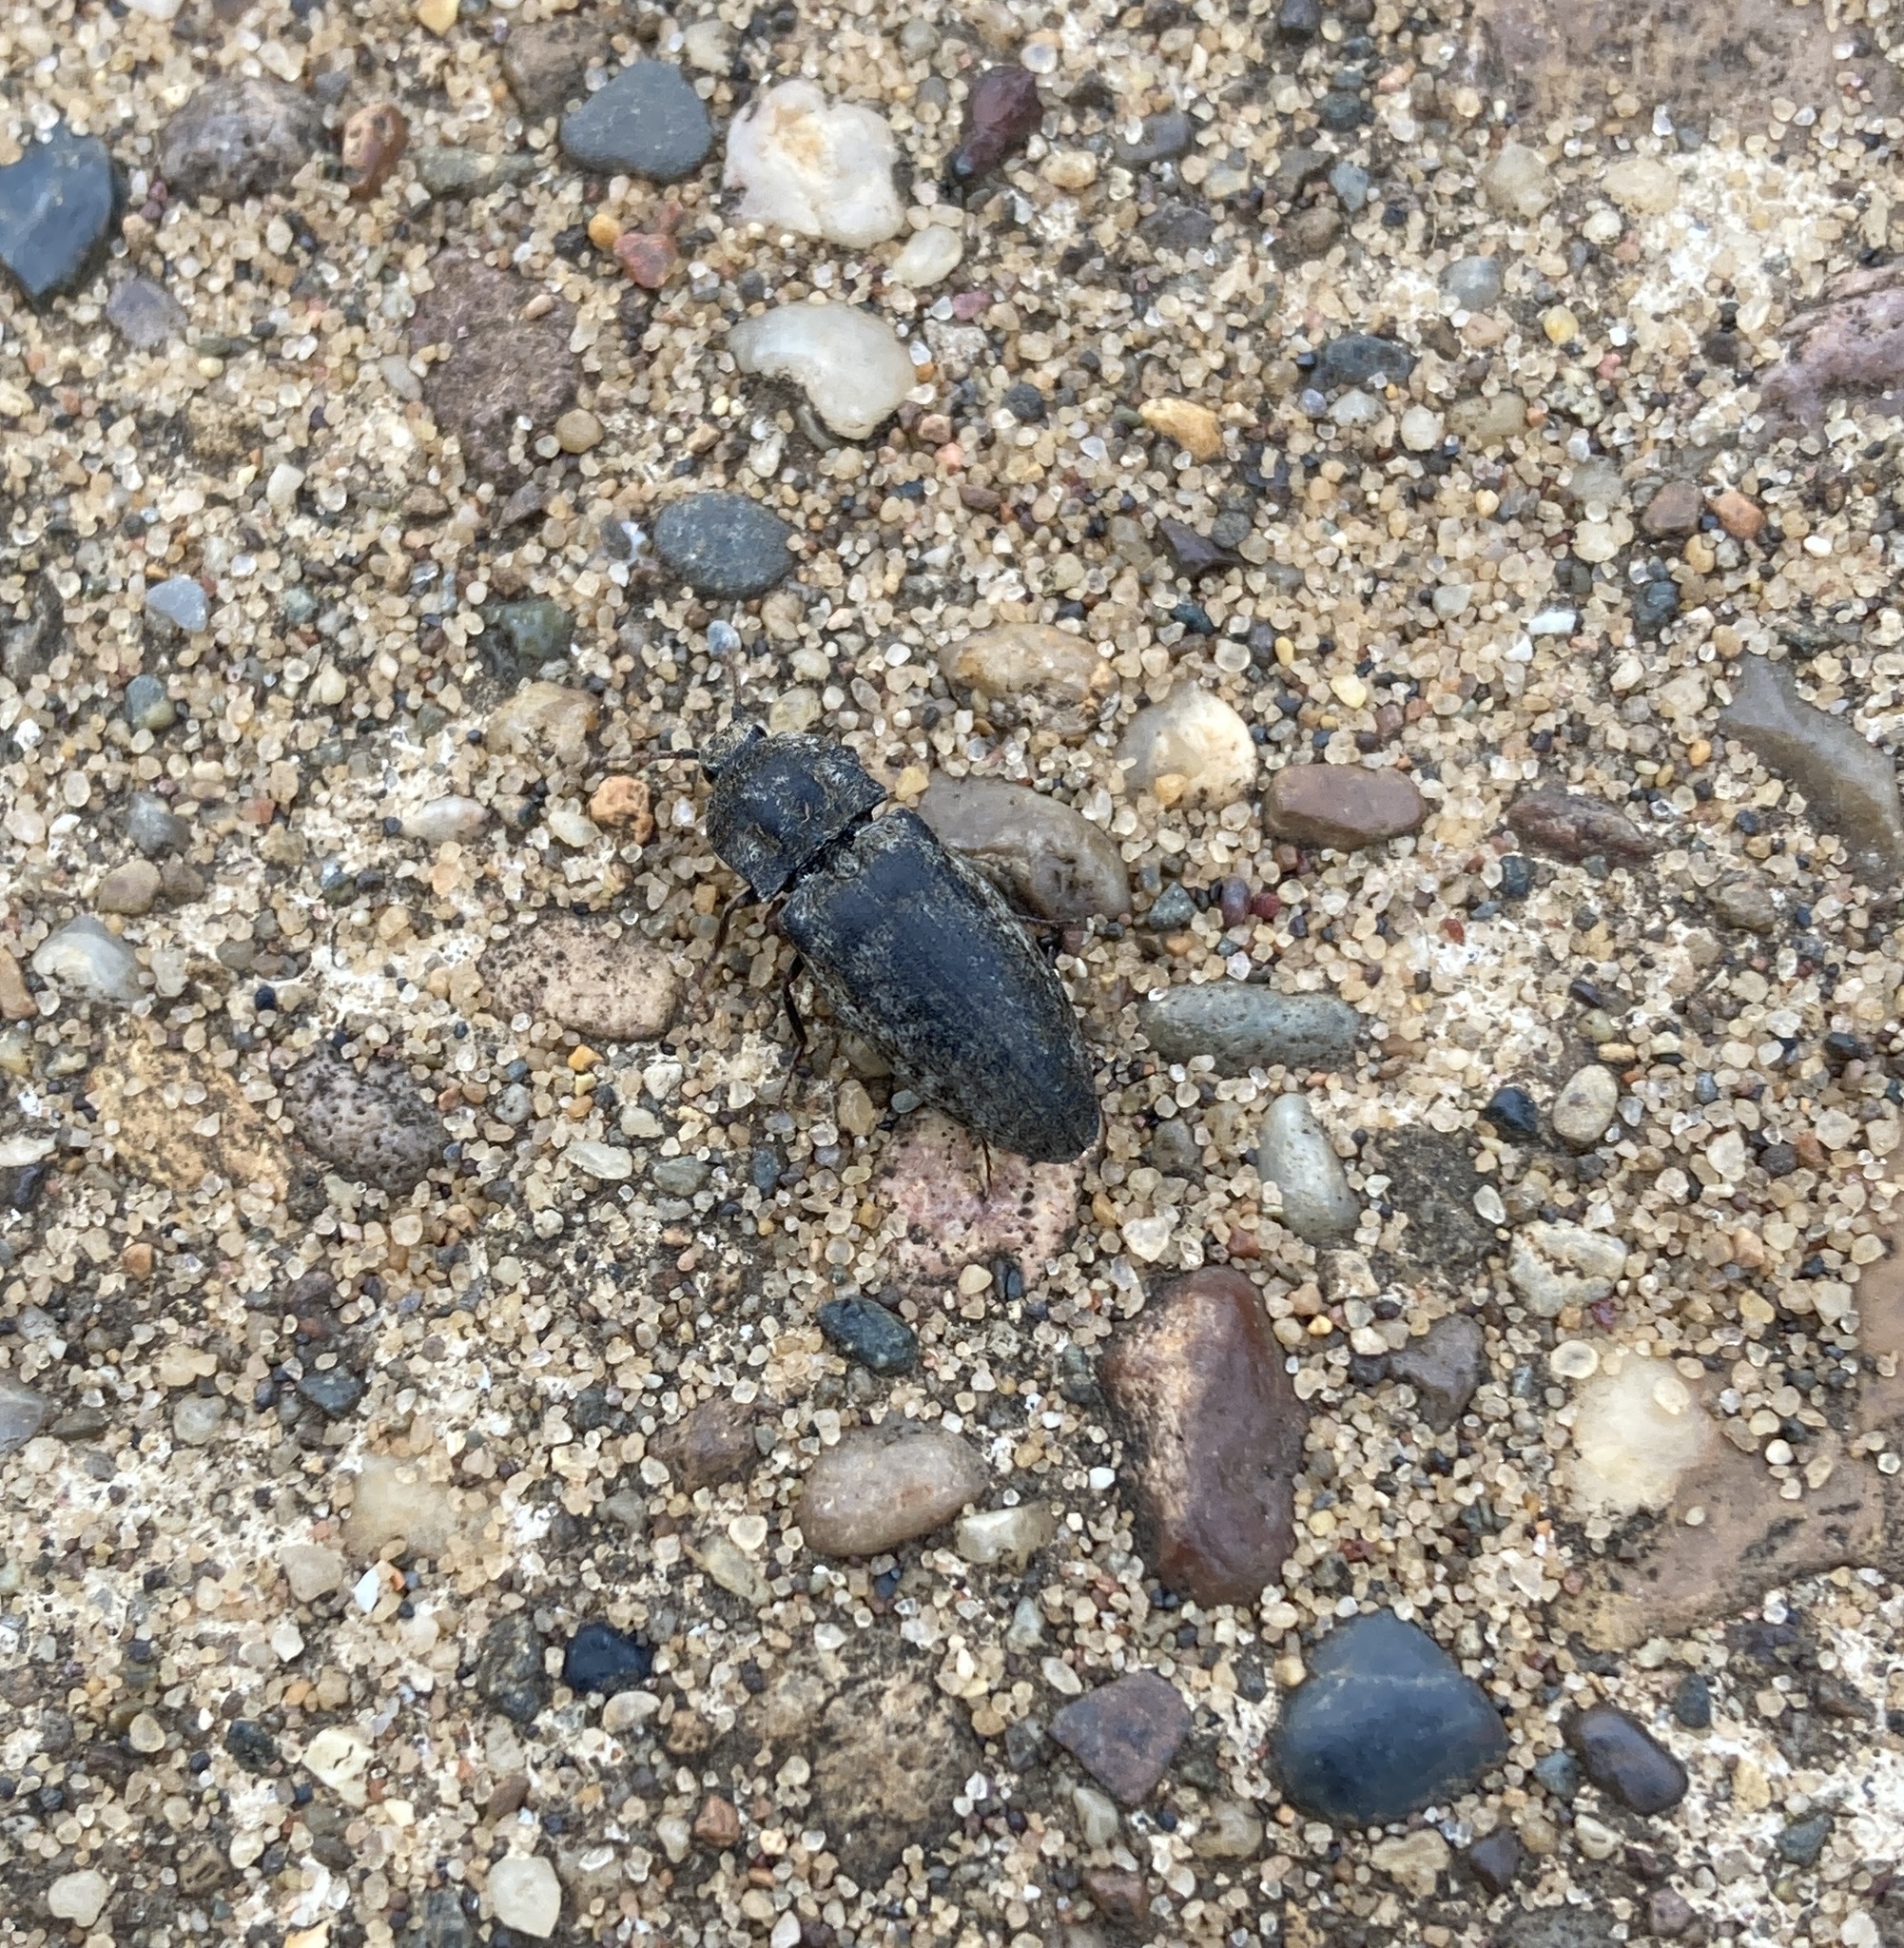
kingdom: Animalia
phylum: Arthropoda
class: Insecta
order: Coleoptera
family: Elateridae
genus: Agrypnus
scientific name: Agrypnus murinus
